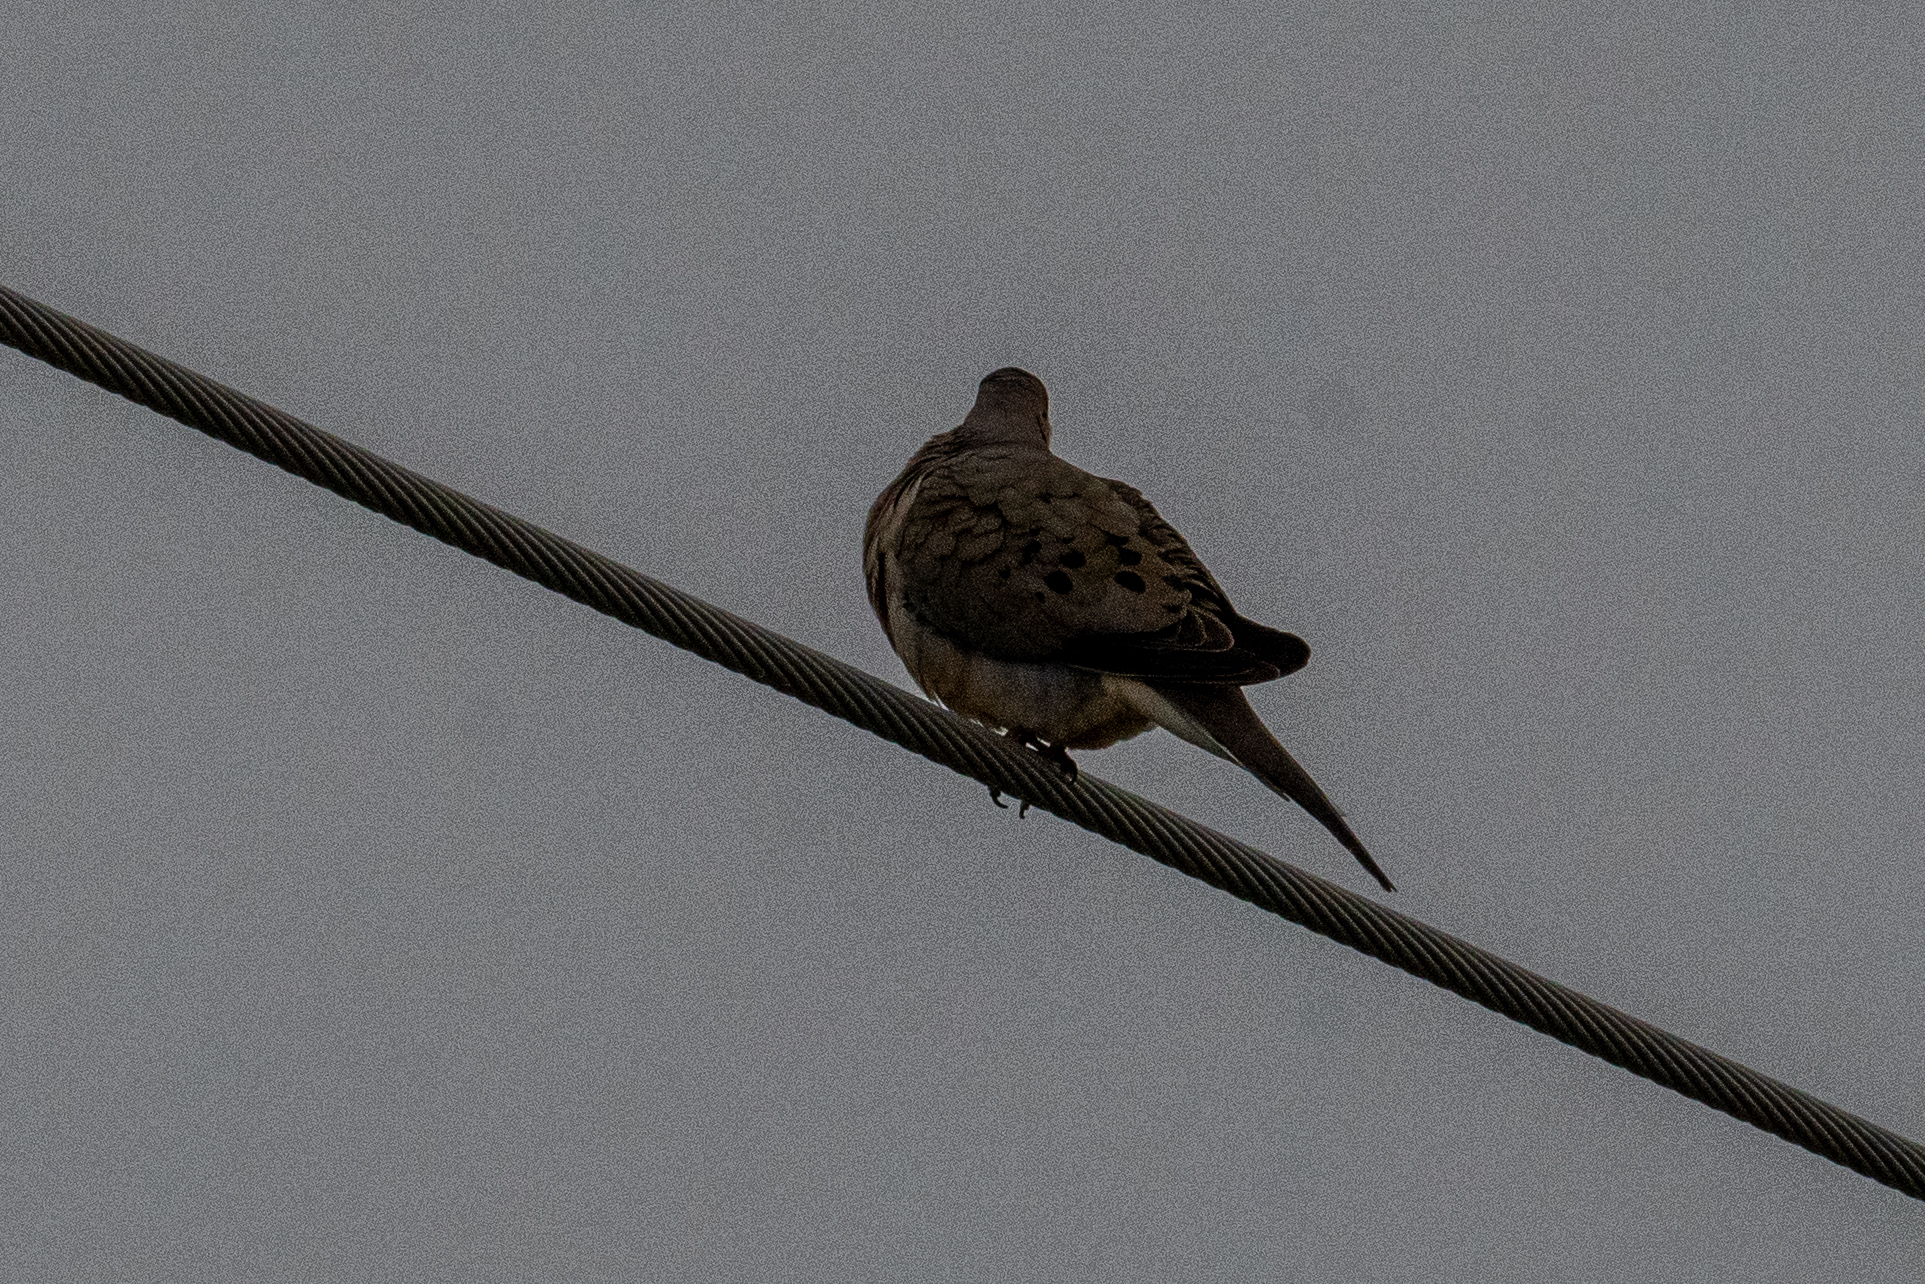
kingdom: Animalia
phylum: Chordata
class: Aves
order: Columbiformes
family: Columbidae
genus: Zenaida
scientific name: Zenaida macroura
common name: Mourning dove
